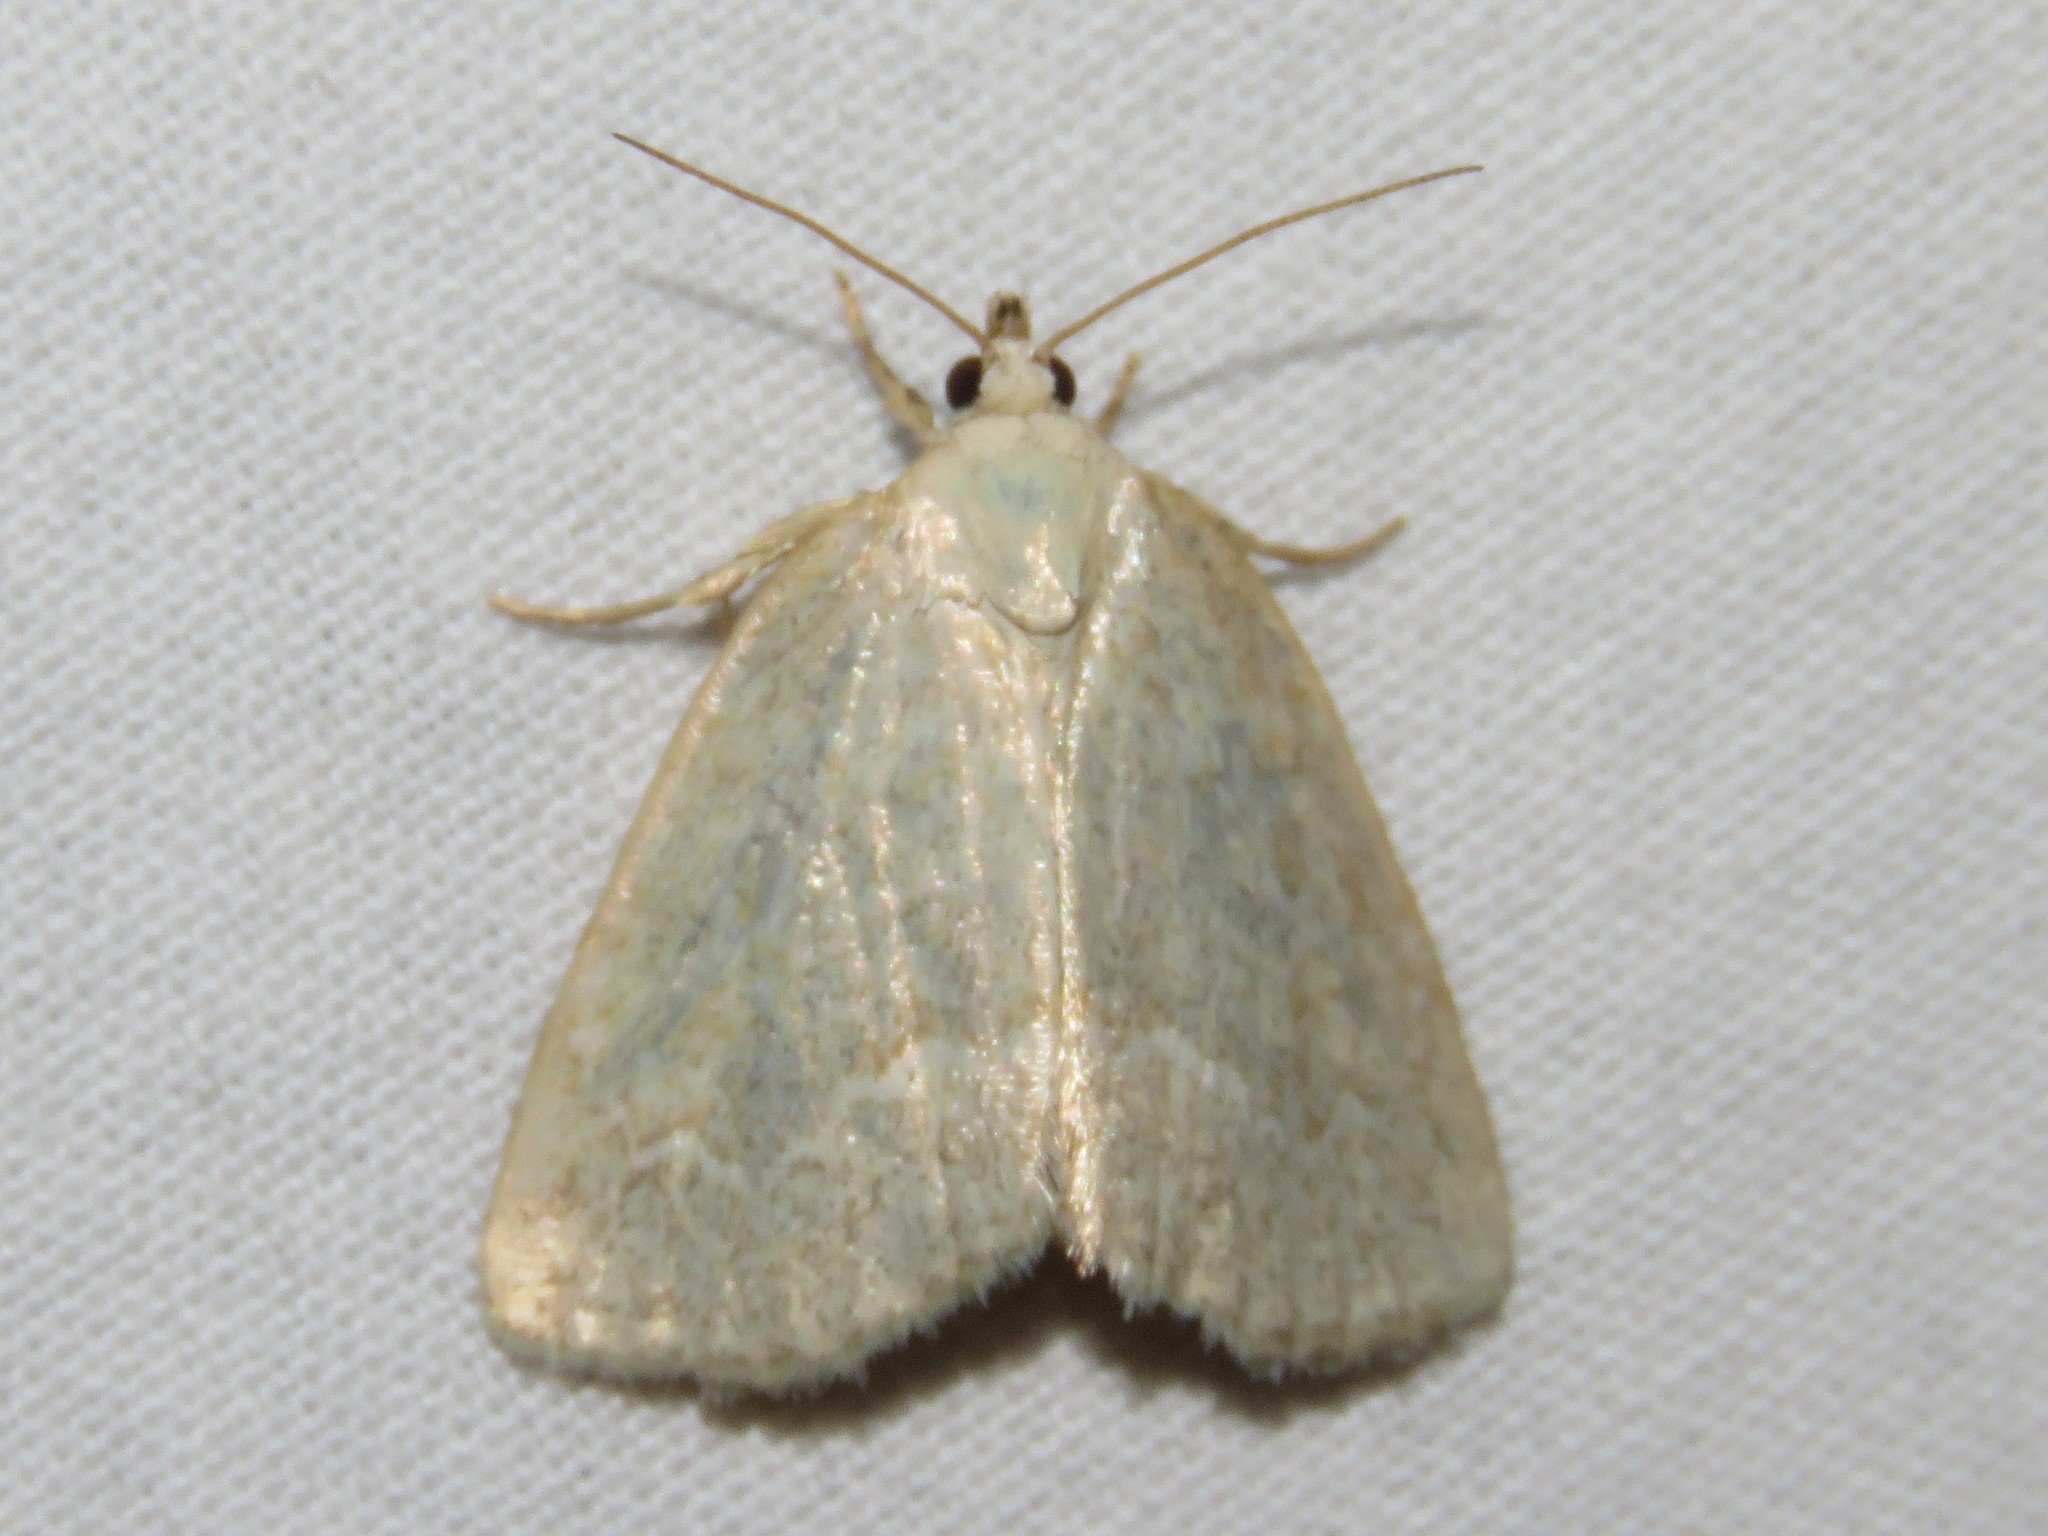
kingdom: Animalia
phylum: Arthropoda
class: Insecta
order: Lepidoptera
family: Noctuidae
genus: Protodeltote
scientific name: Protodeltote albidula
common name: Pale glyph
